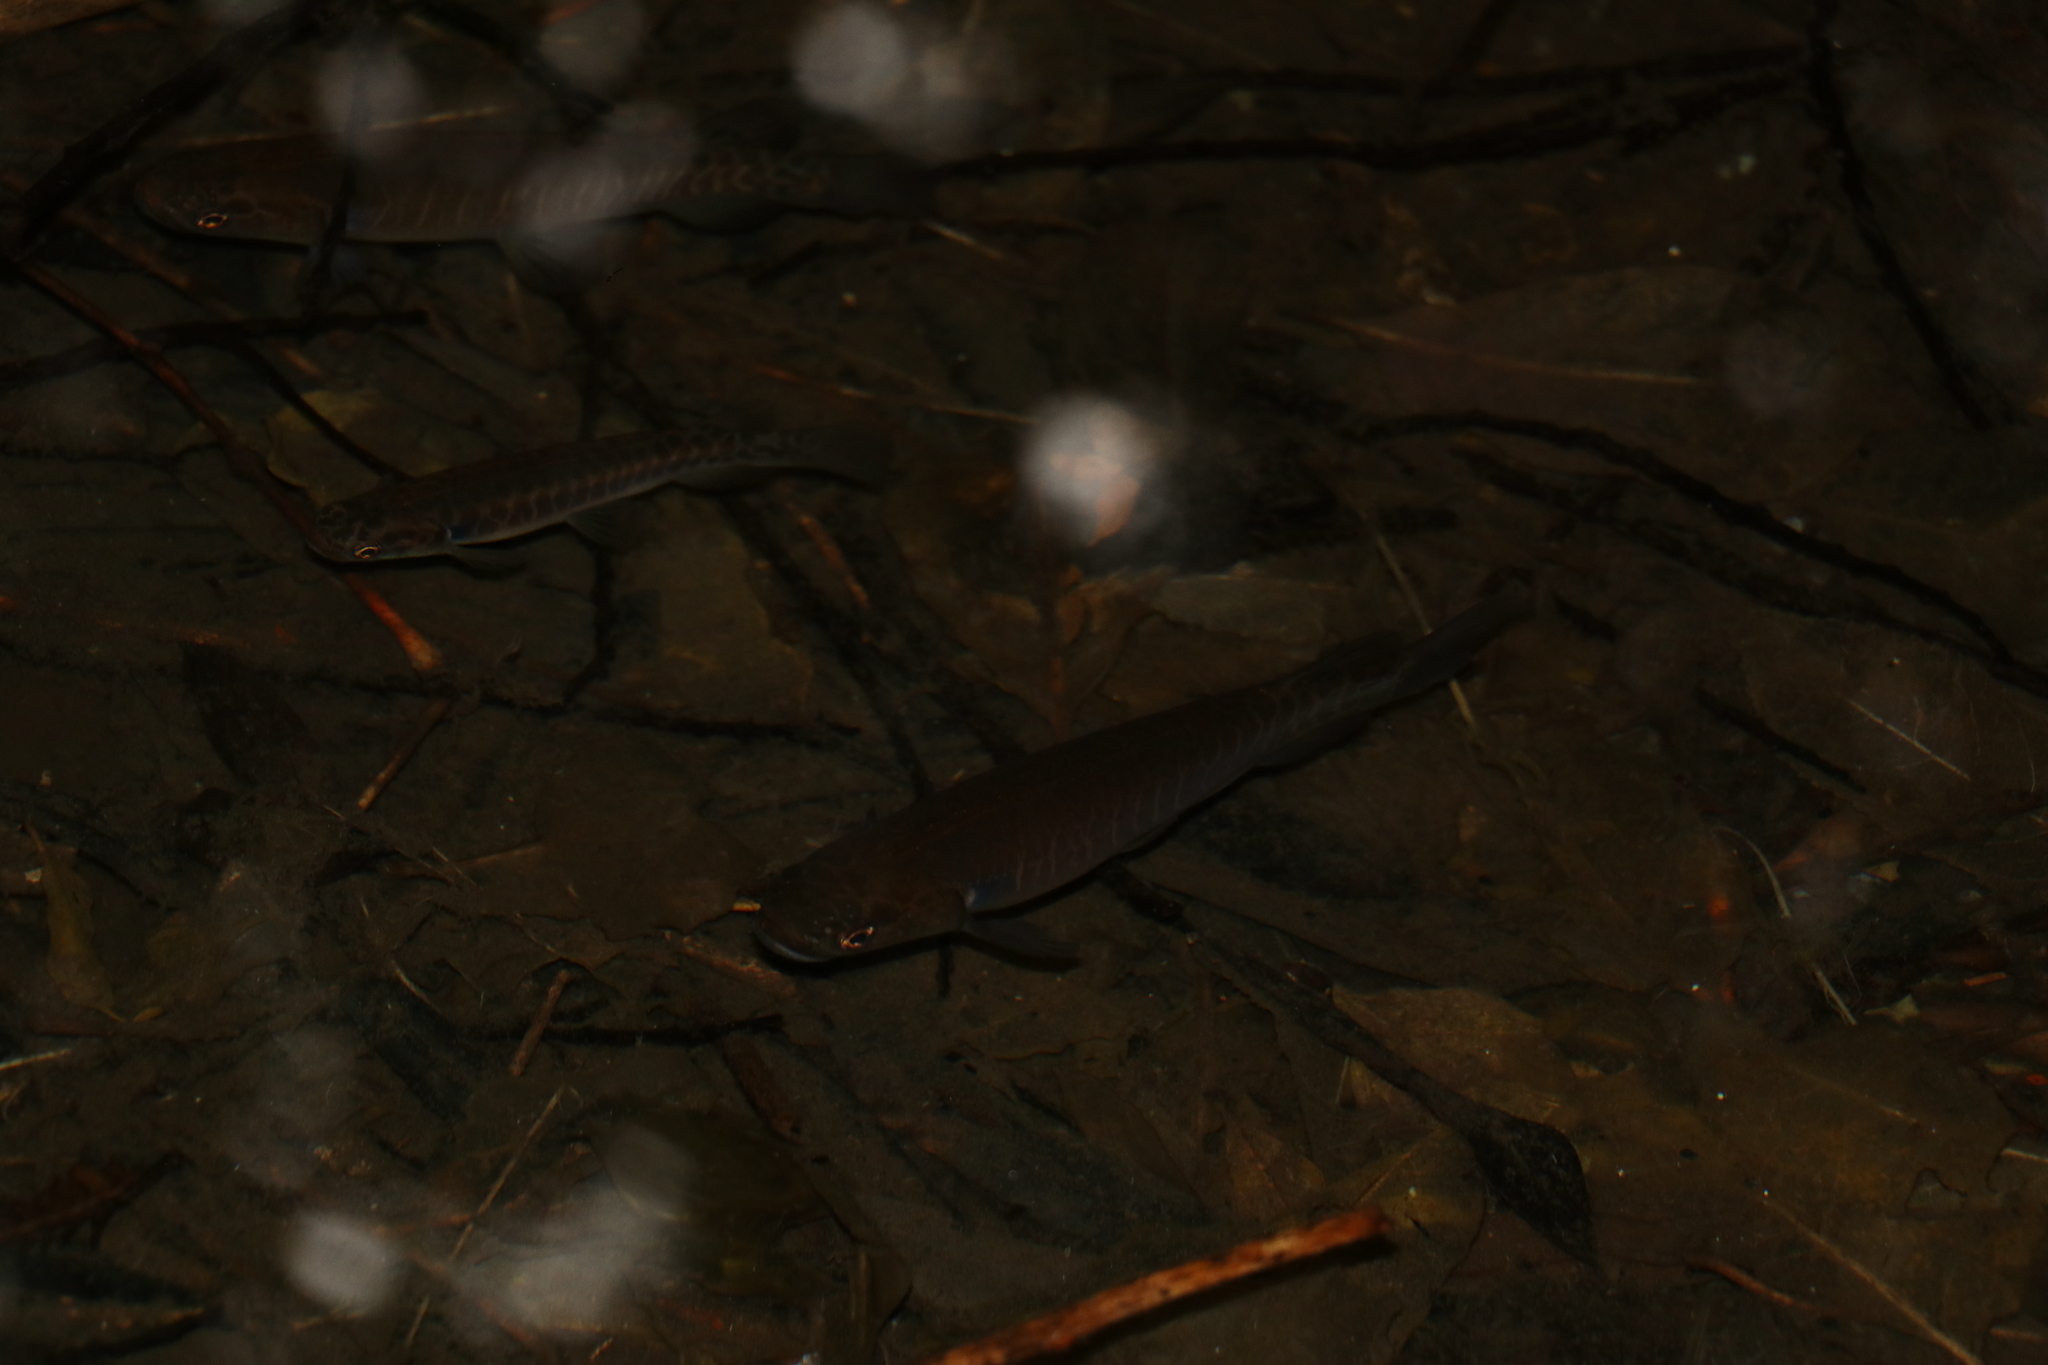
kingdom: Animalia
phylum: Chordata
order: Osmeriformes
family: Galaxiidae
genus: Galaxias
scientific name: Galaxias fasciatus
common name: Banded kokopu
